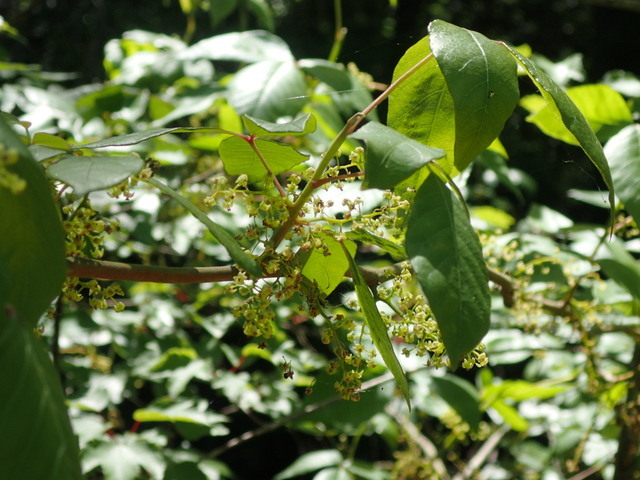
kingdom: Plantae
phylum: Tracheophyta
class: Magnoliopsida
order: Sapindales
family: Anacardiaceae
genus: Toxicodendron
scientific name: Toxicodendron radicans
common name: Poison ivy
